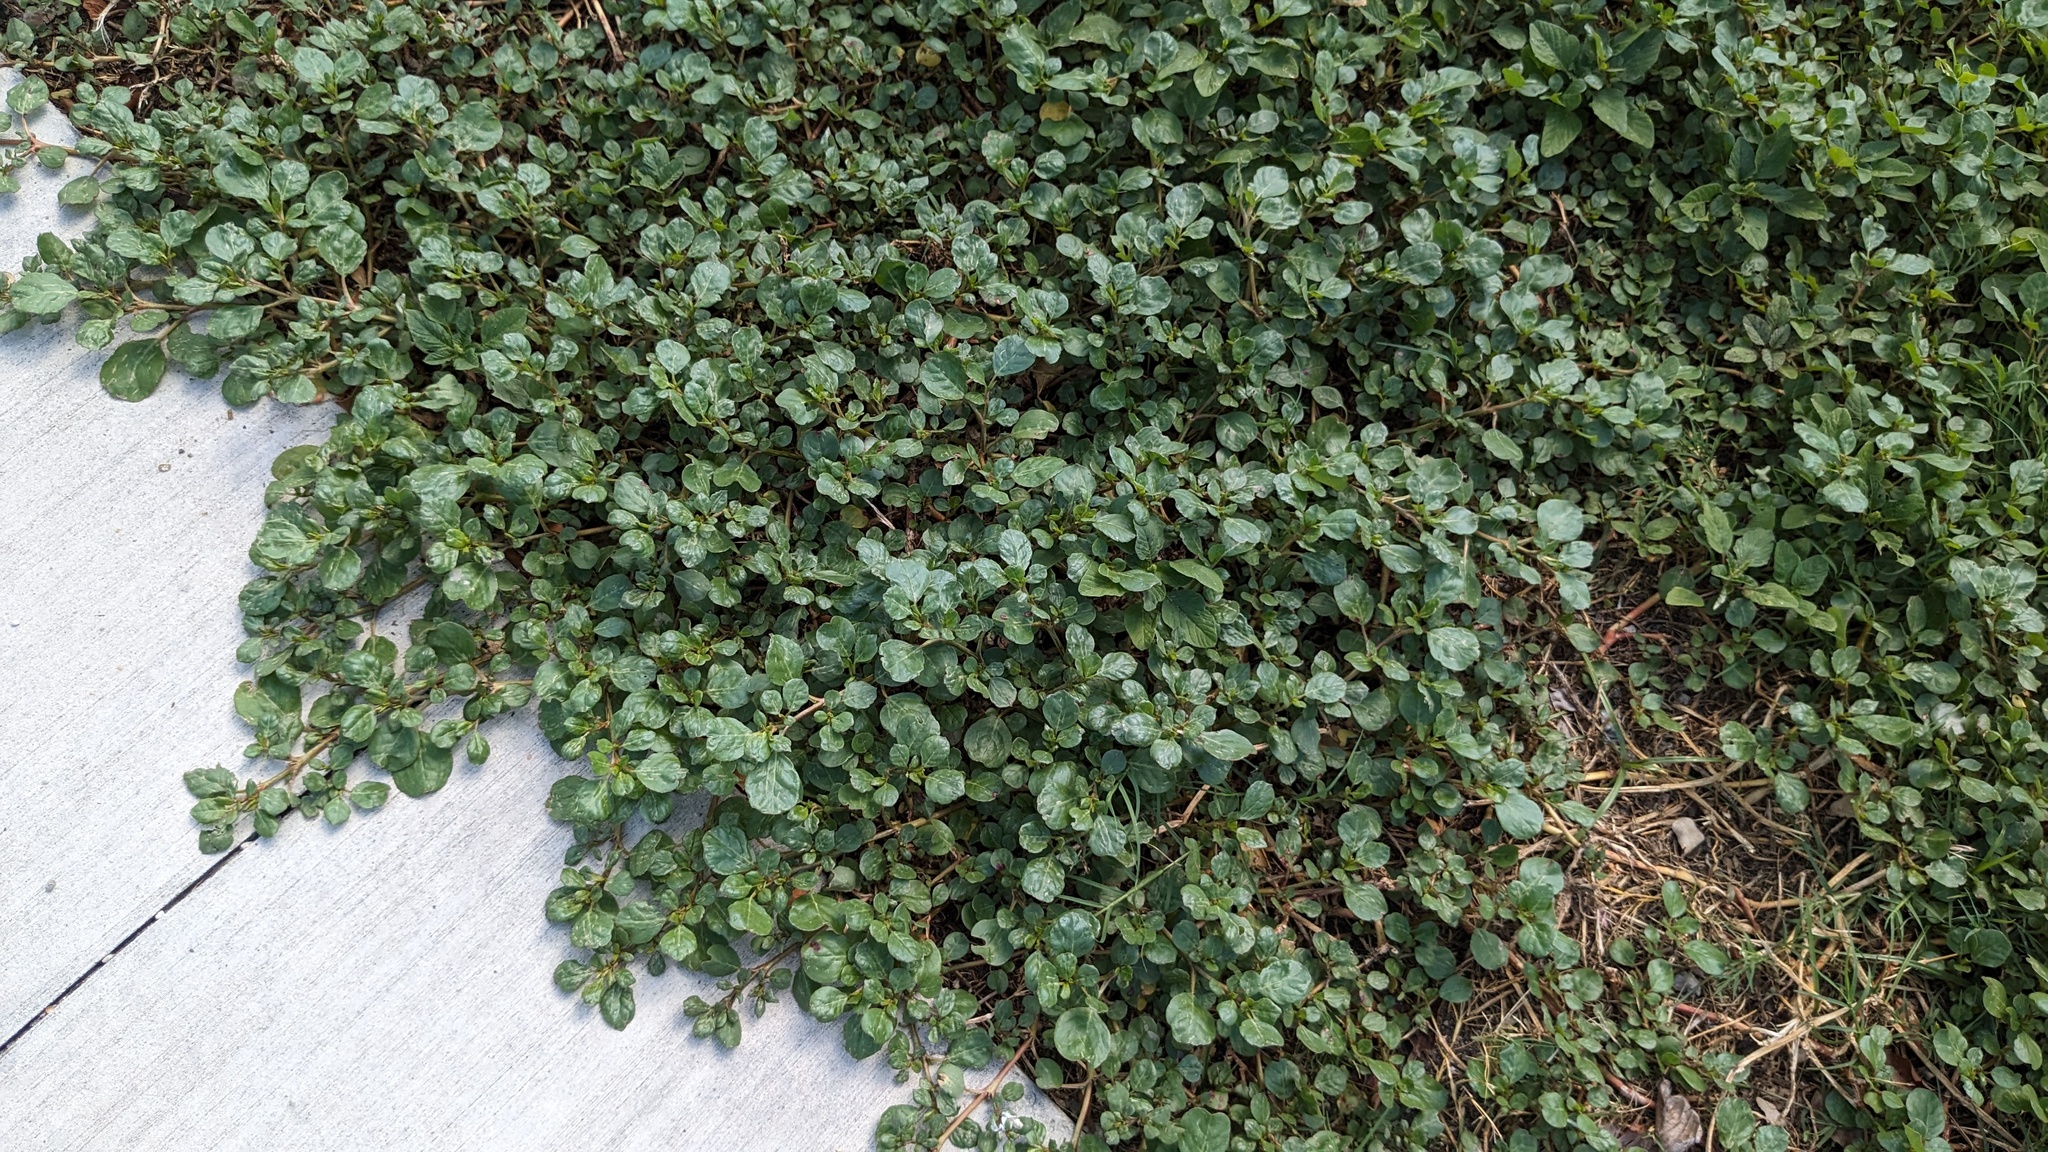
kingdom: Plantae
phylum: Tracheophyta
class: Magnoliopsida
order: Caryophyllales
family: Aizoaceae
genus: Trianthema
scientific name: Trianthema portulacastrum
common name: Desert horsepurslane
